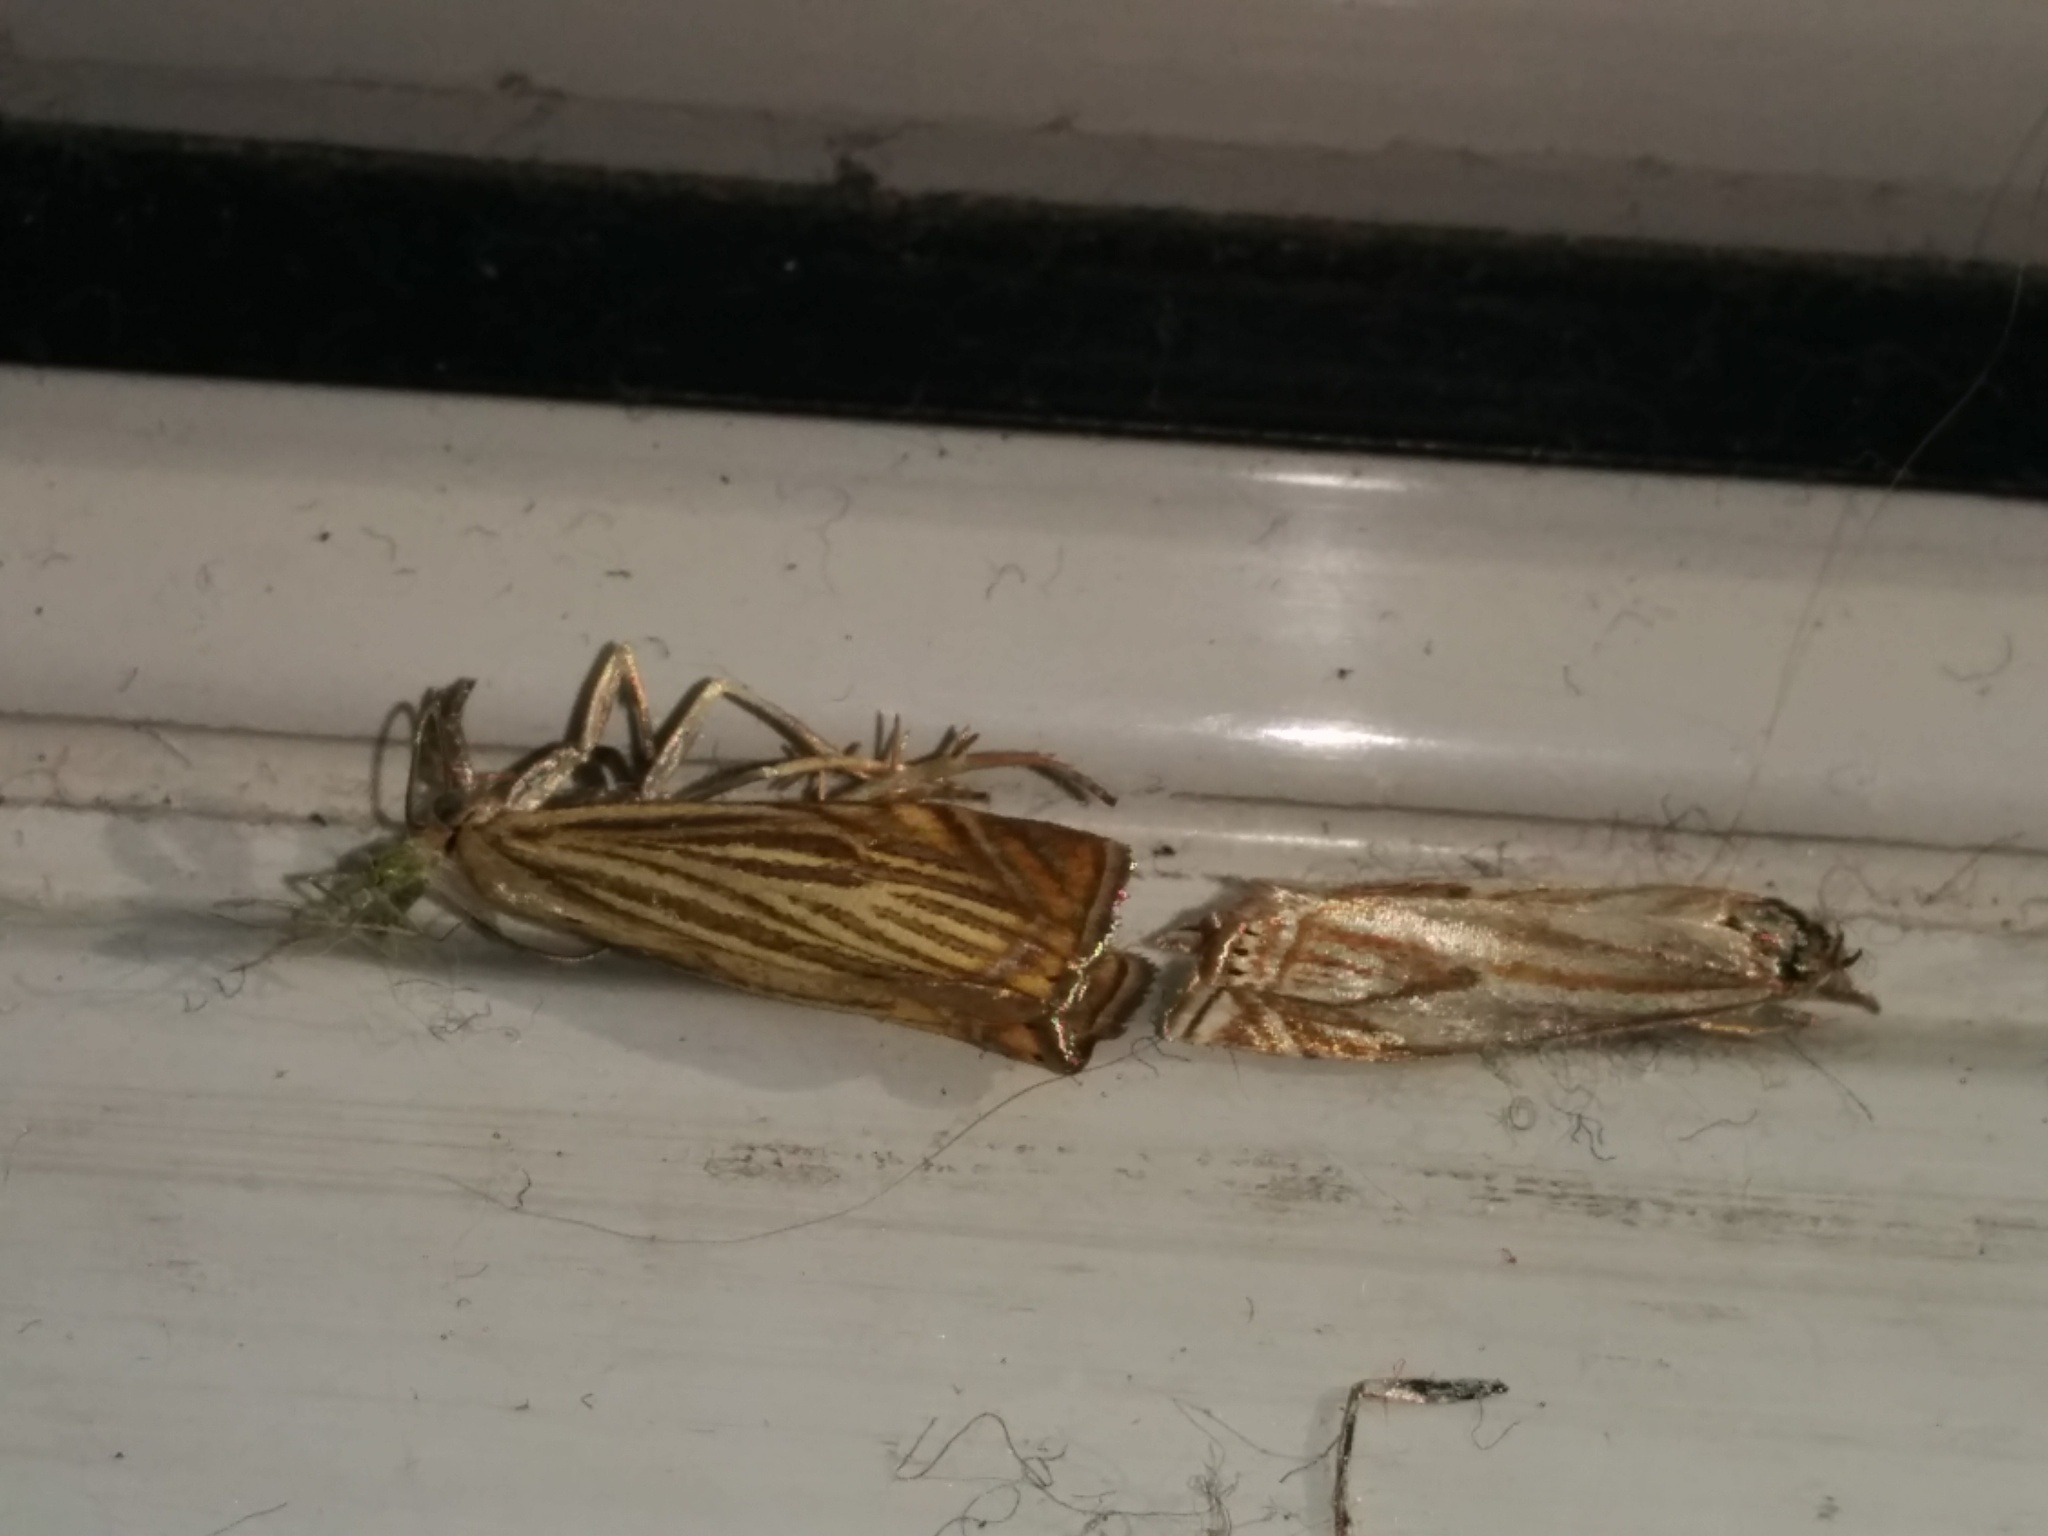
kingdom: Animalia
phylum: Arthropoda
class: Insecta
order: Lepidoptera
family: Crambidae
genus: Crambus
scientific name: Crambus nemorella
